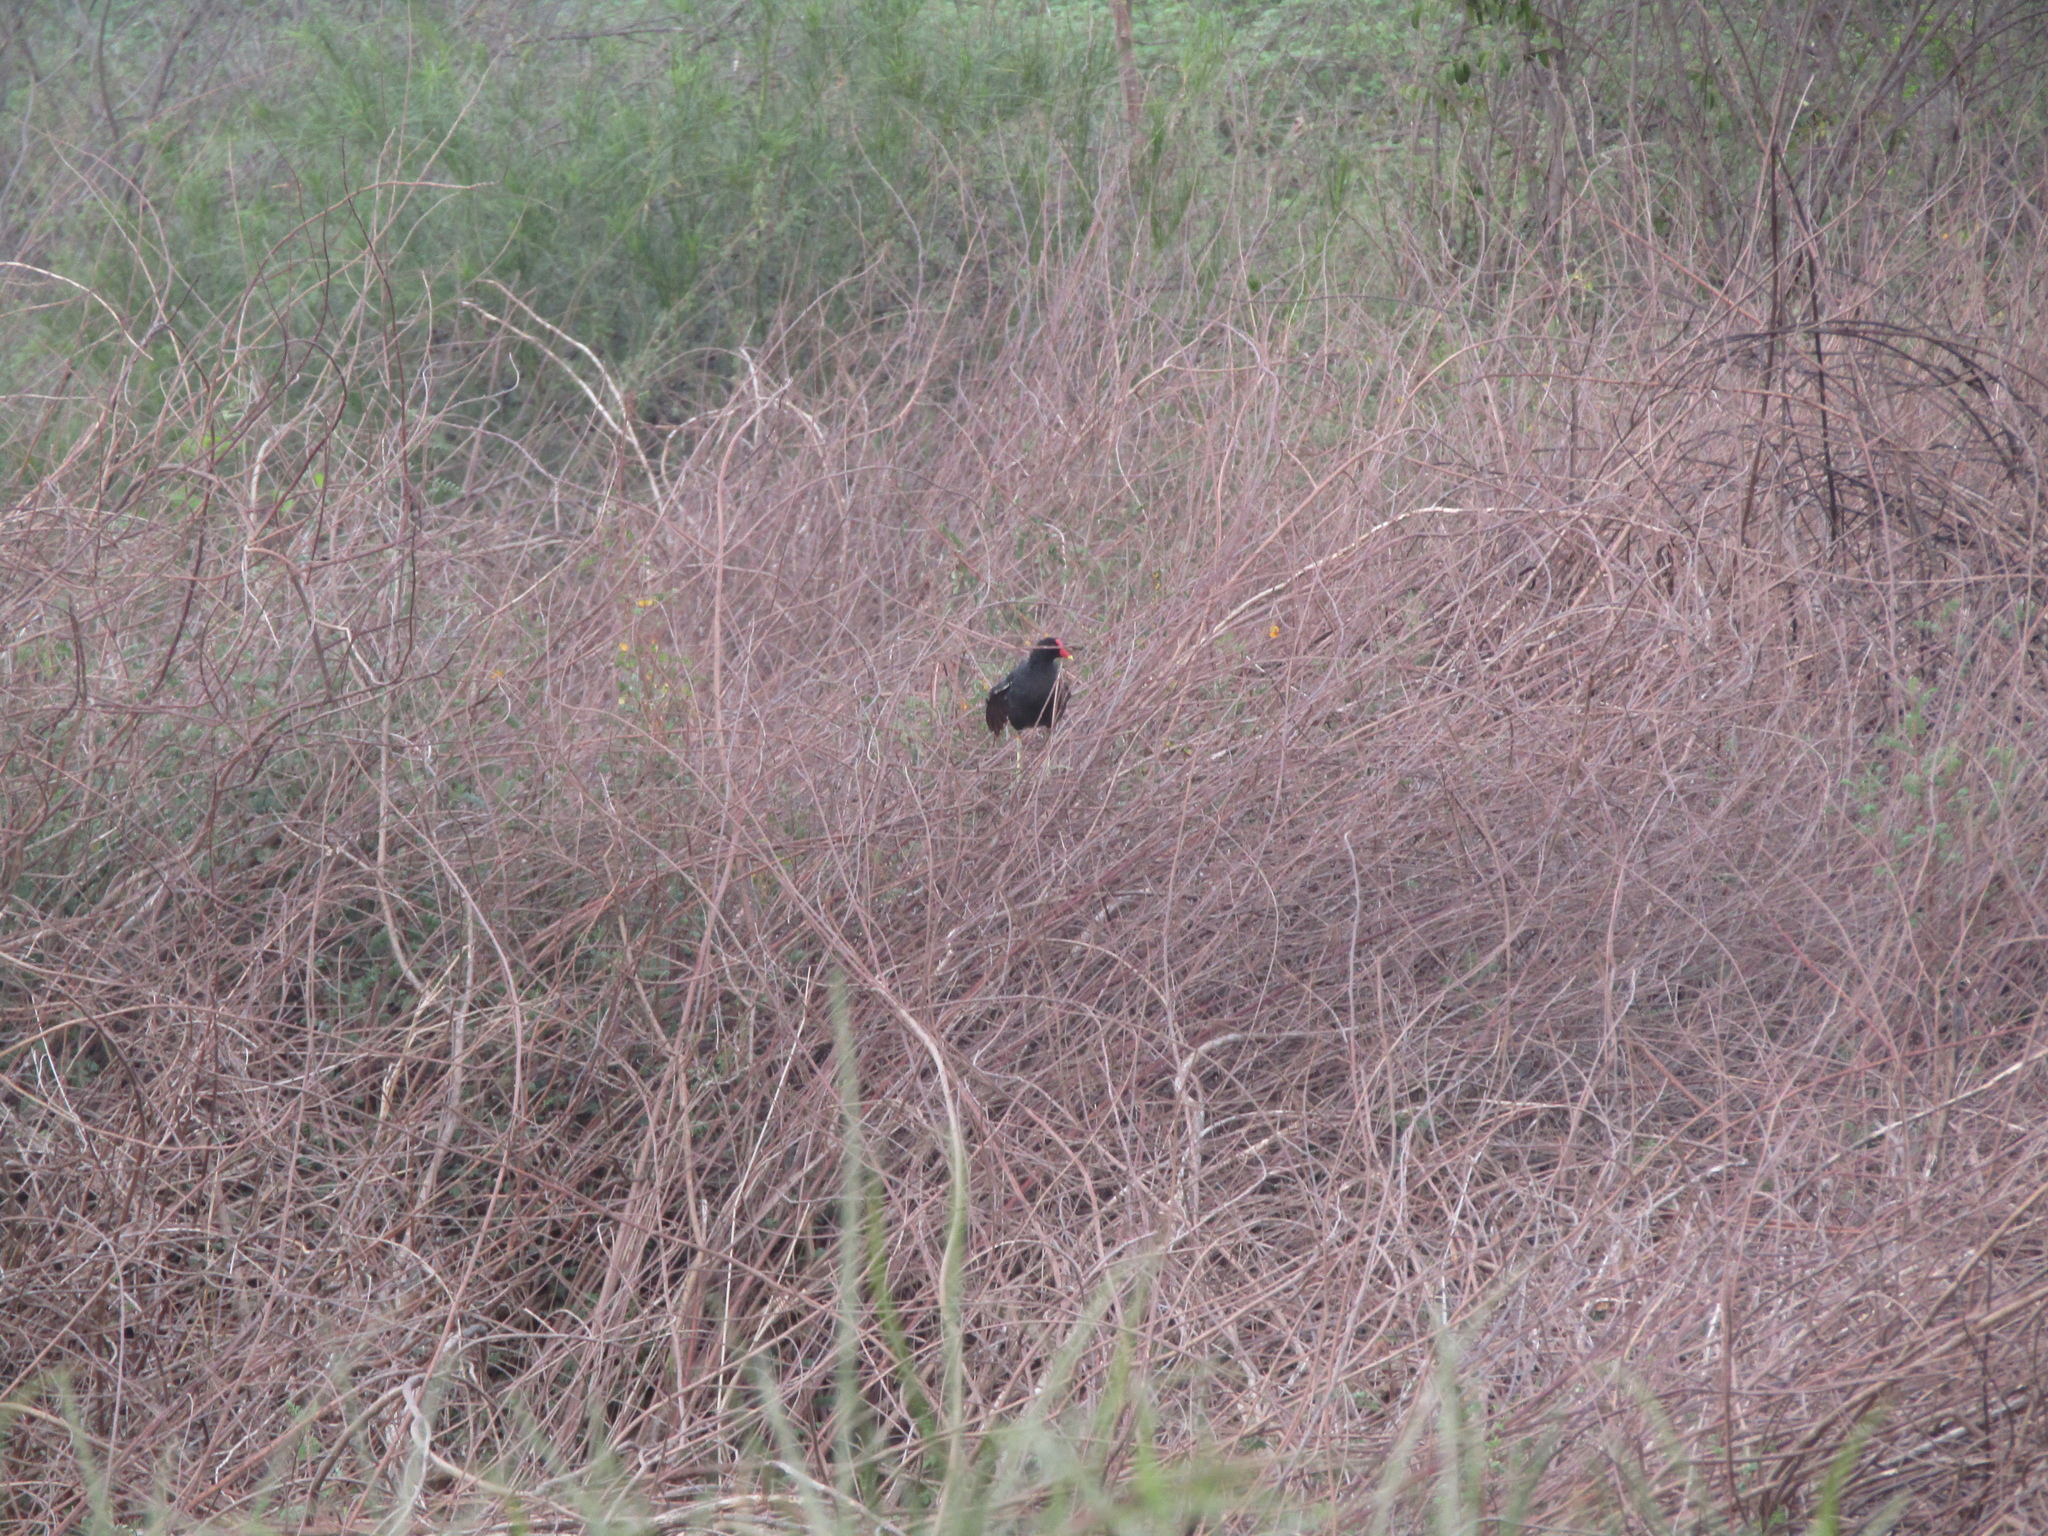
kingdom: Animalia
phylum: Chordata
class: Aves
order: Gruiformes
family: Rallidae
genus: Gallinula
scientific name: Gallinula chloropus
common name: Common moorhen
